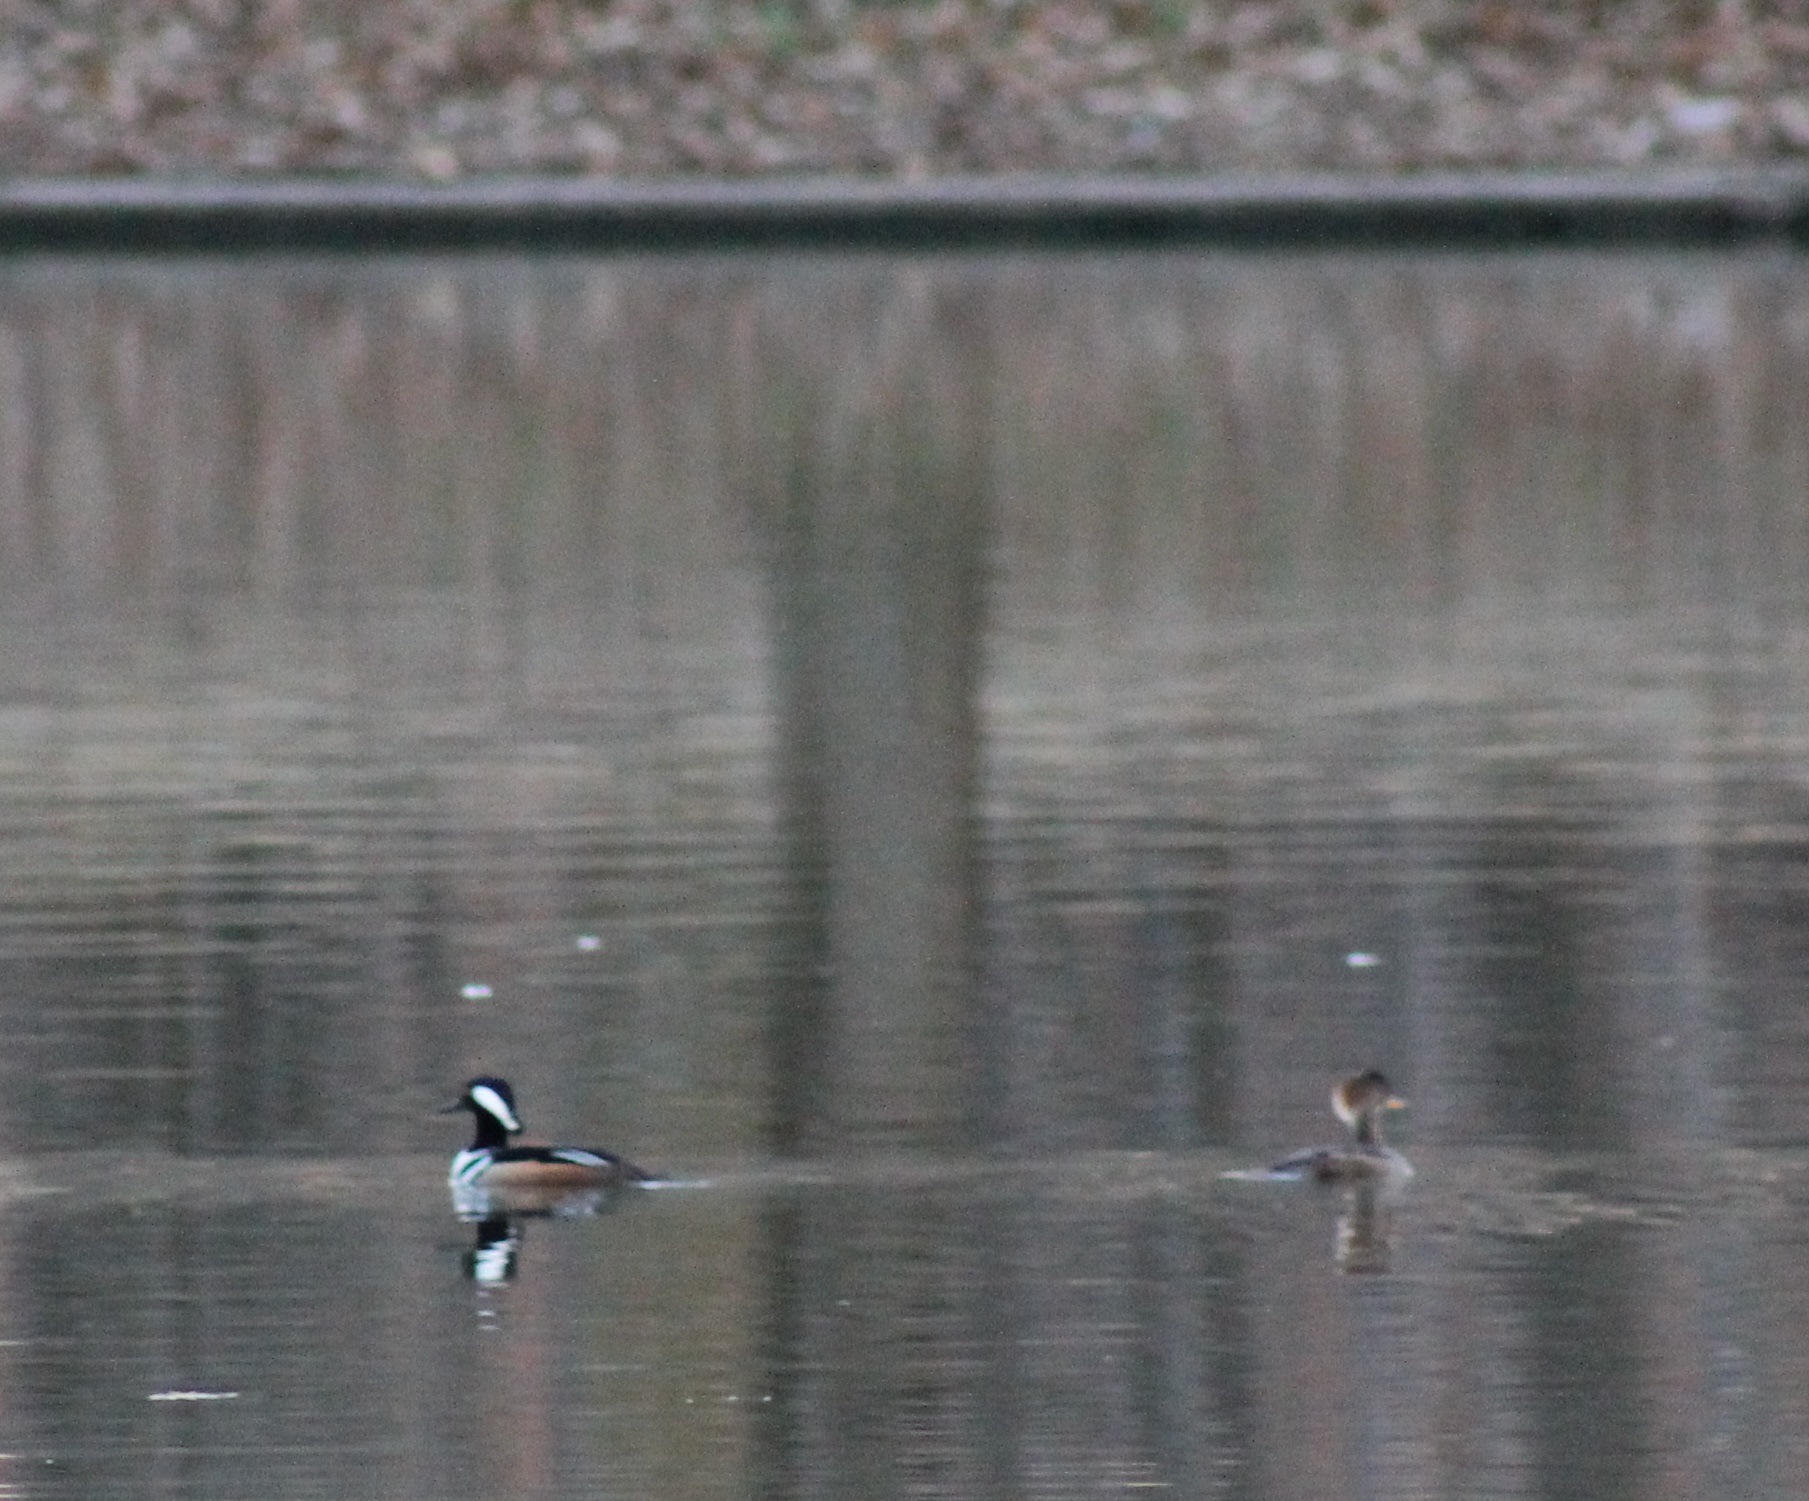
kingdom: Animalia
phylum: Chordata
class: Aves
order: Anseriformes
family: Anatidae
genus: Lophodytes
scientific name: Lophodytes cucullatus
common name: Hooded merganser
